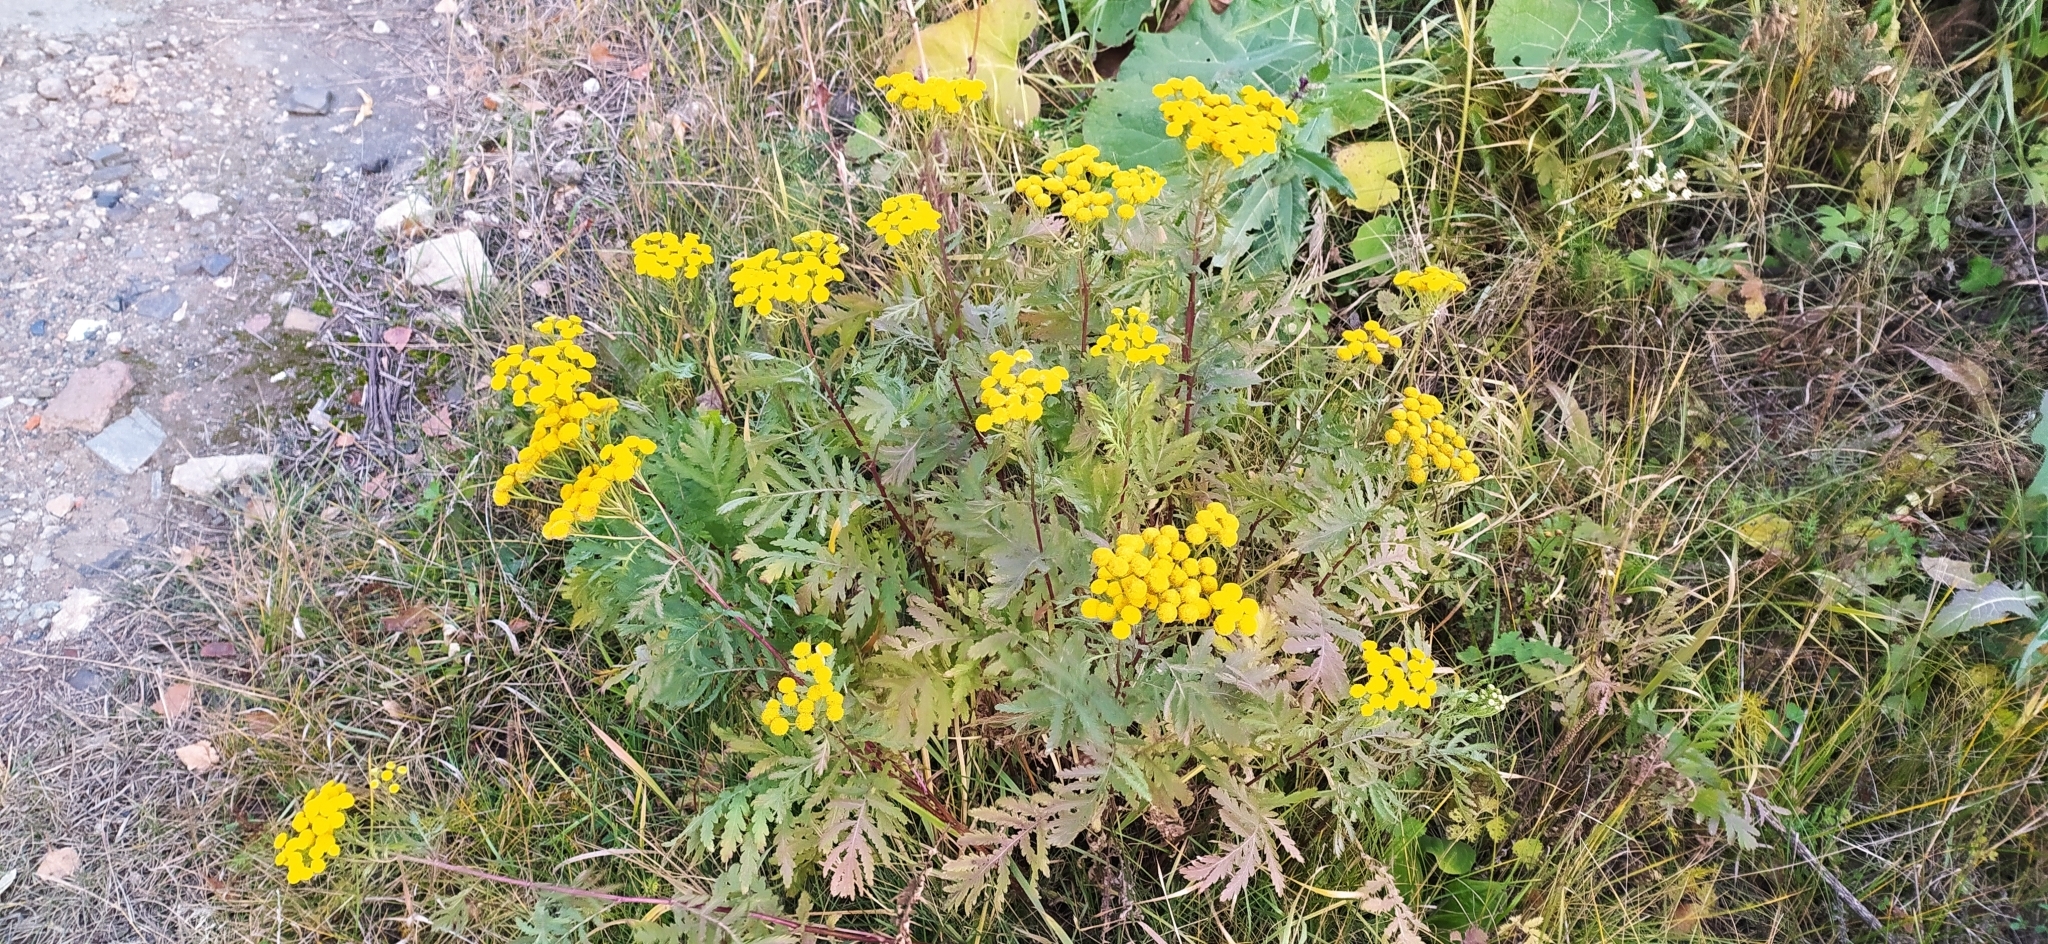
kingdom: Plantae
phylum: Tracheophyta
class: Magnoliopsida
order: Asterales
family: Asteraceae
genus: Tanacetum
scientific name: Tanacetum vulgare
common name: Common tansy
